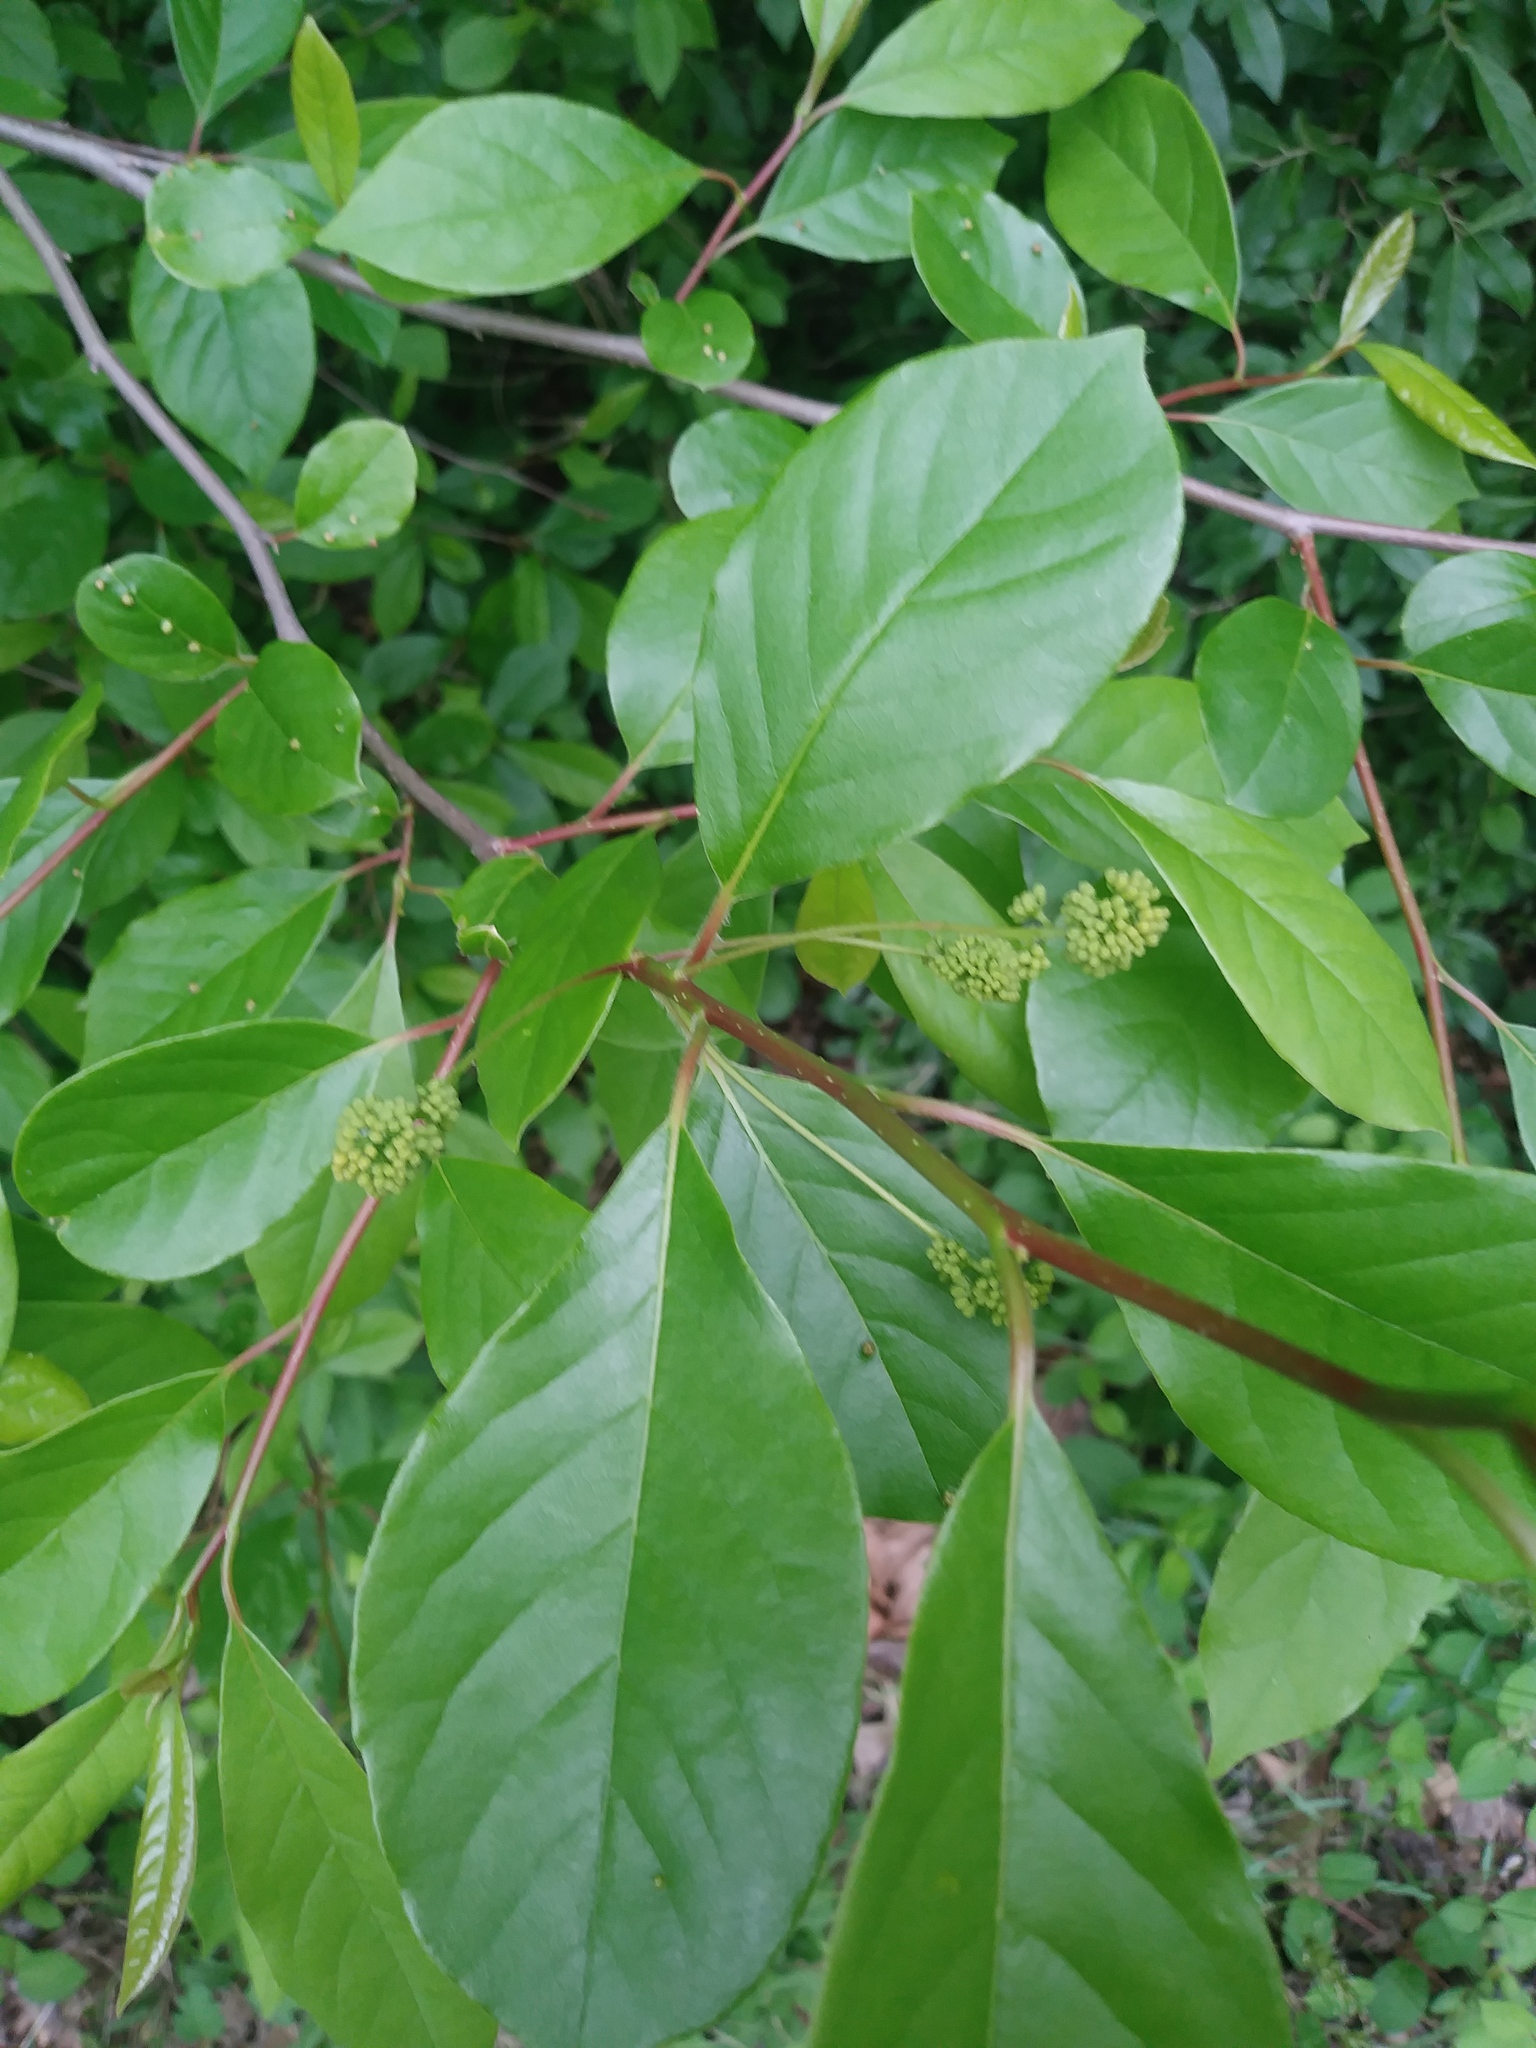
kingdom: Plantae
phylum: Tracheophyta
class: Magnoliopsida
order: Cornales
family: Nyssaceae
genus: Nyssa
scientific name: Nyssa sylvatica
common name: Black tupelo
